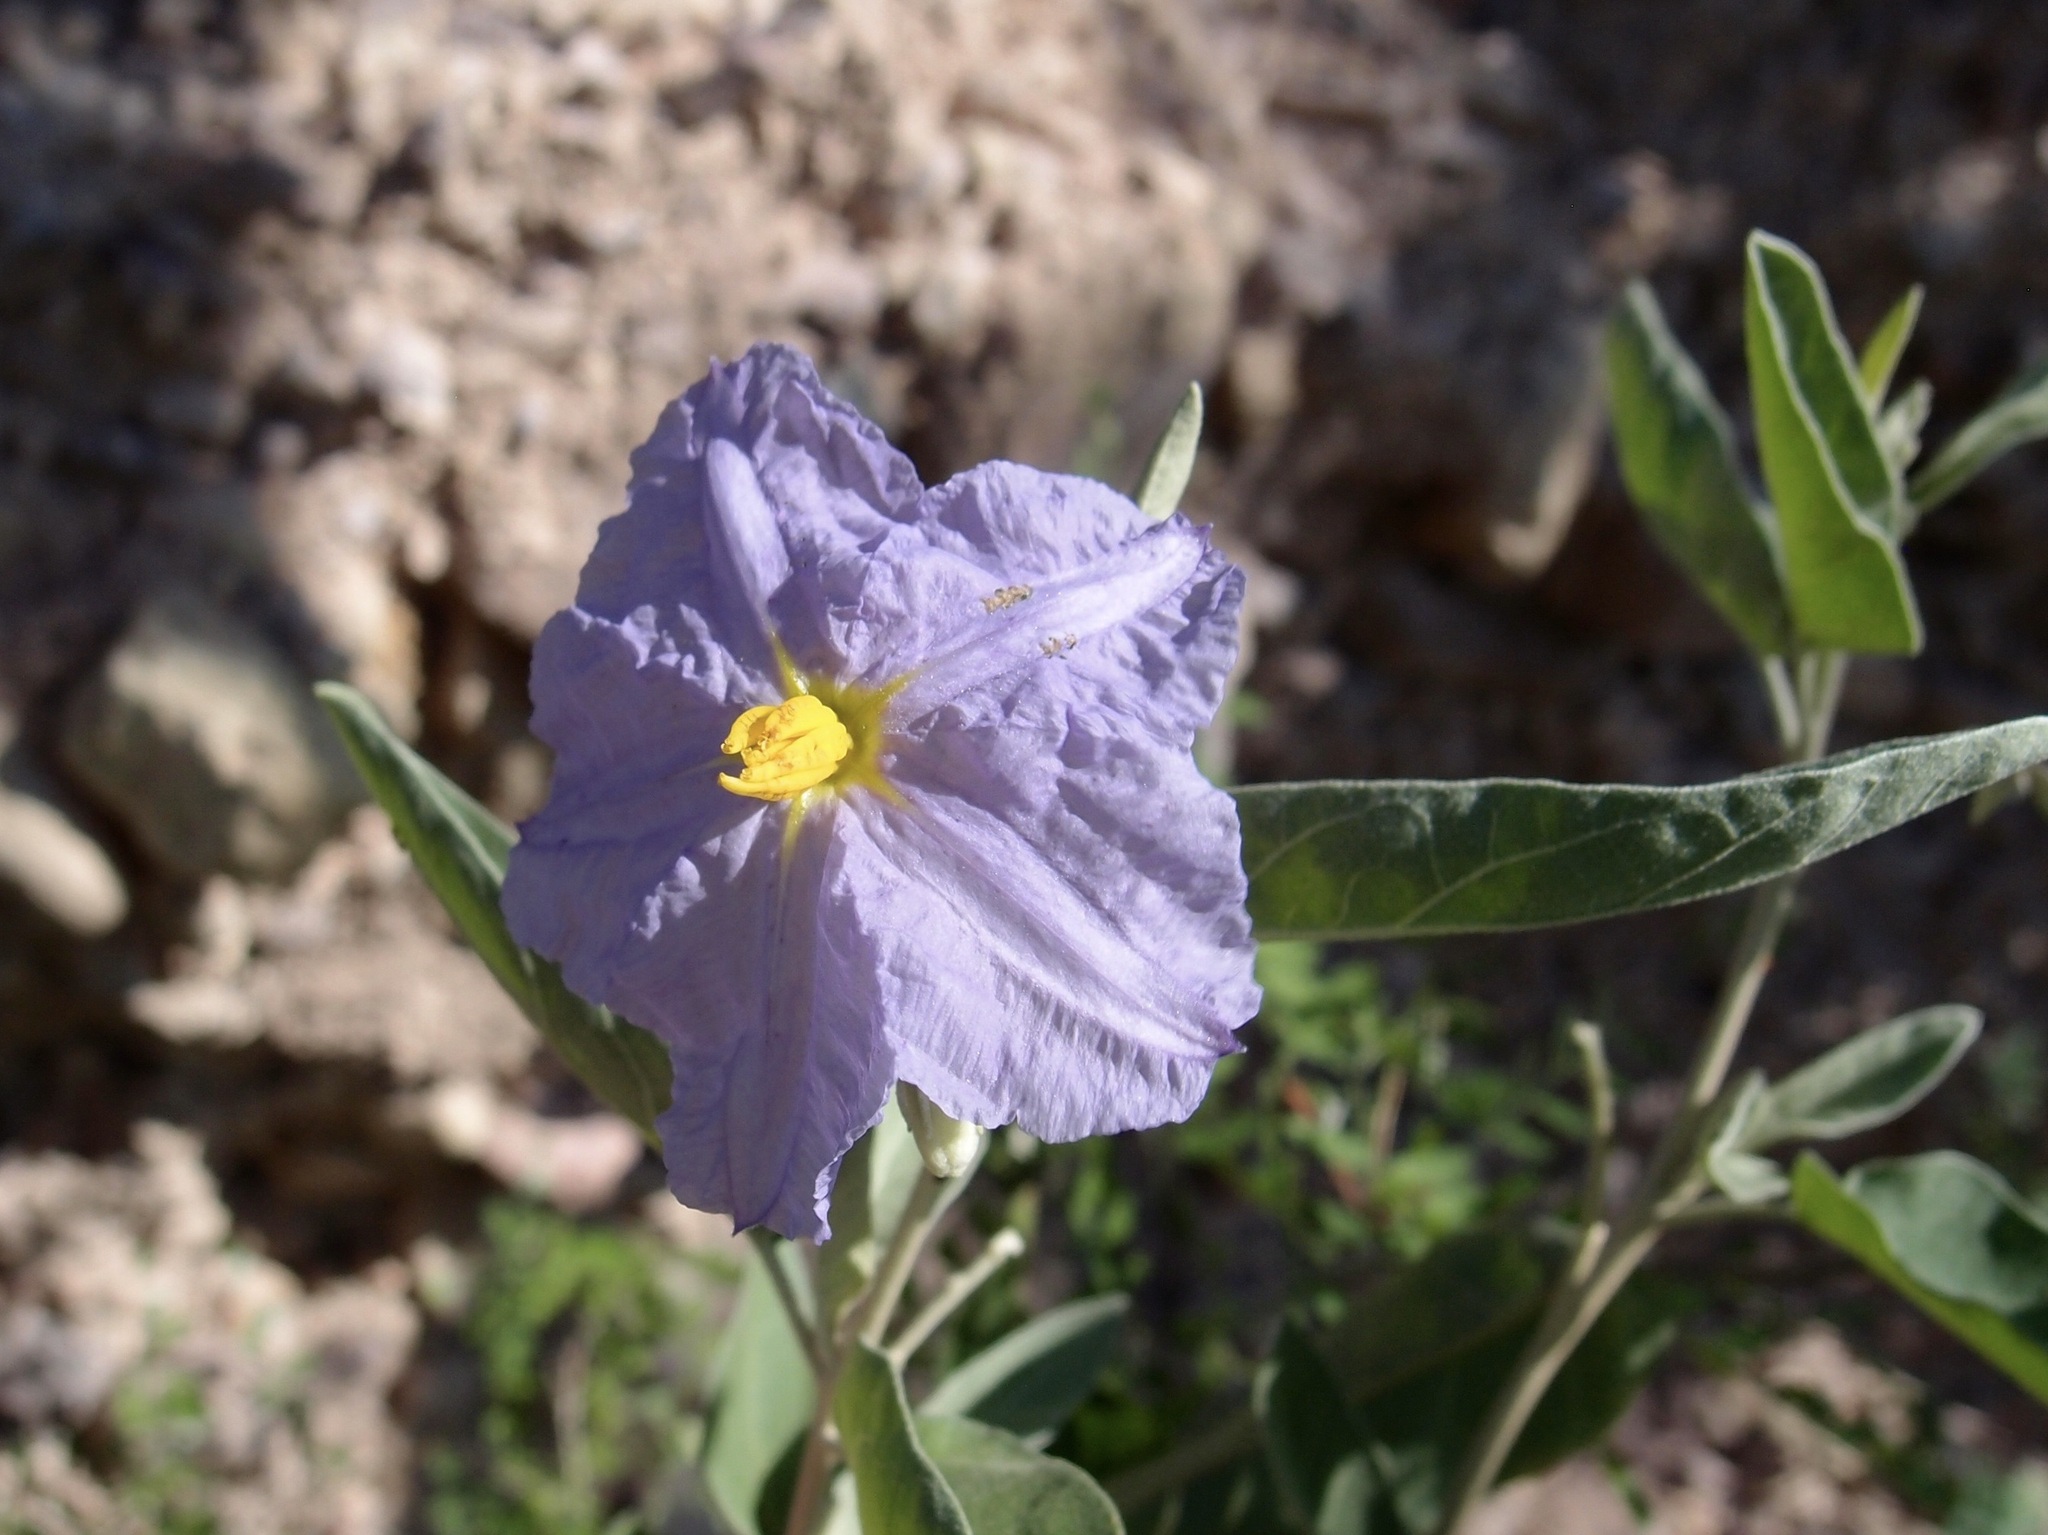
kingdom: Plantae
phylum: Tracheophyta
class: Magnoliopsida
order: Solanales
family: Solanaceae
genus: Solanum
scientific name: Solanum hindsianum
